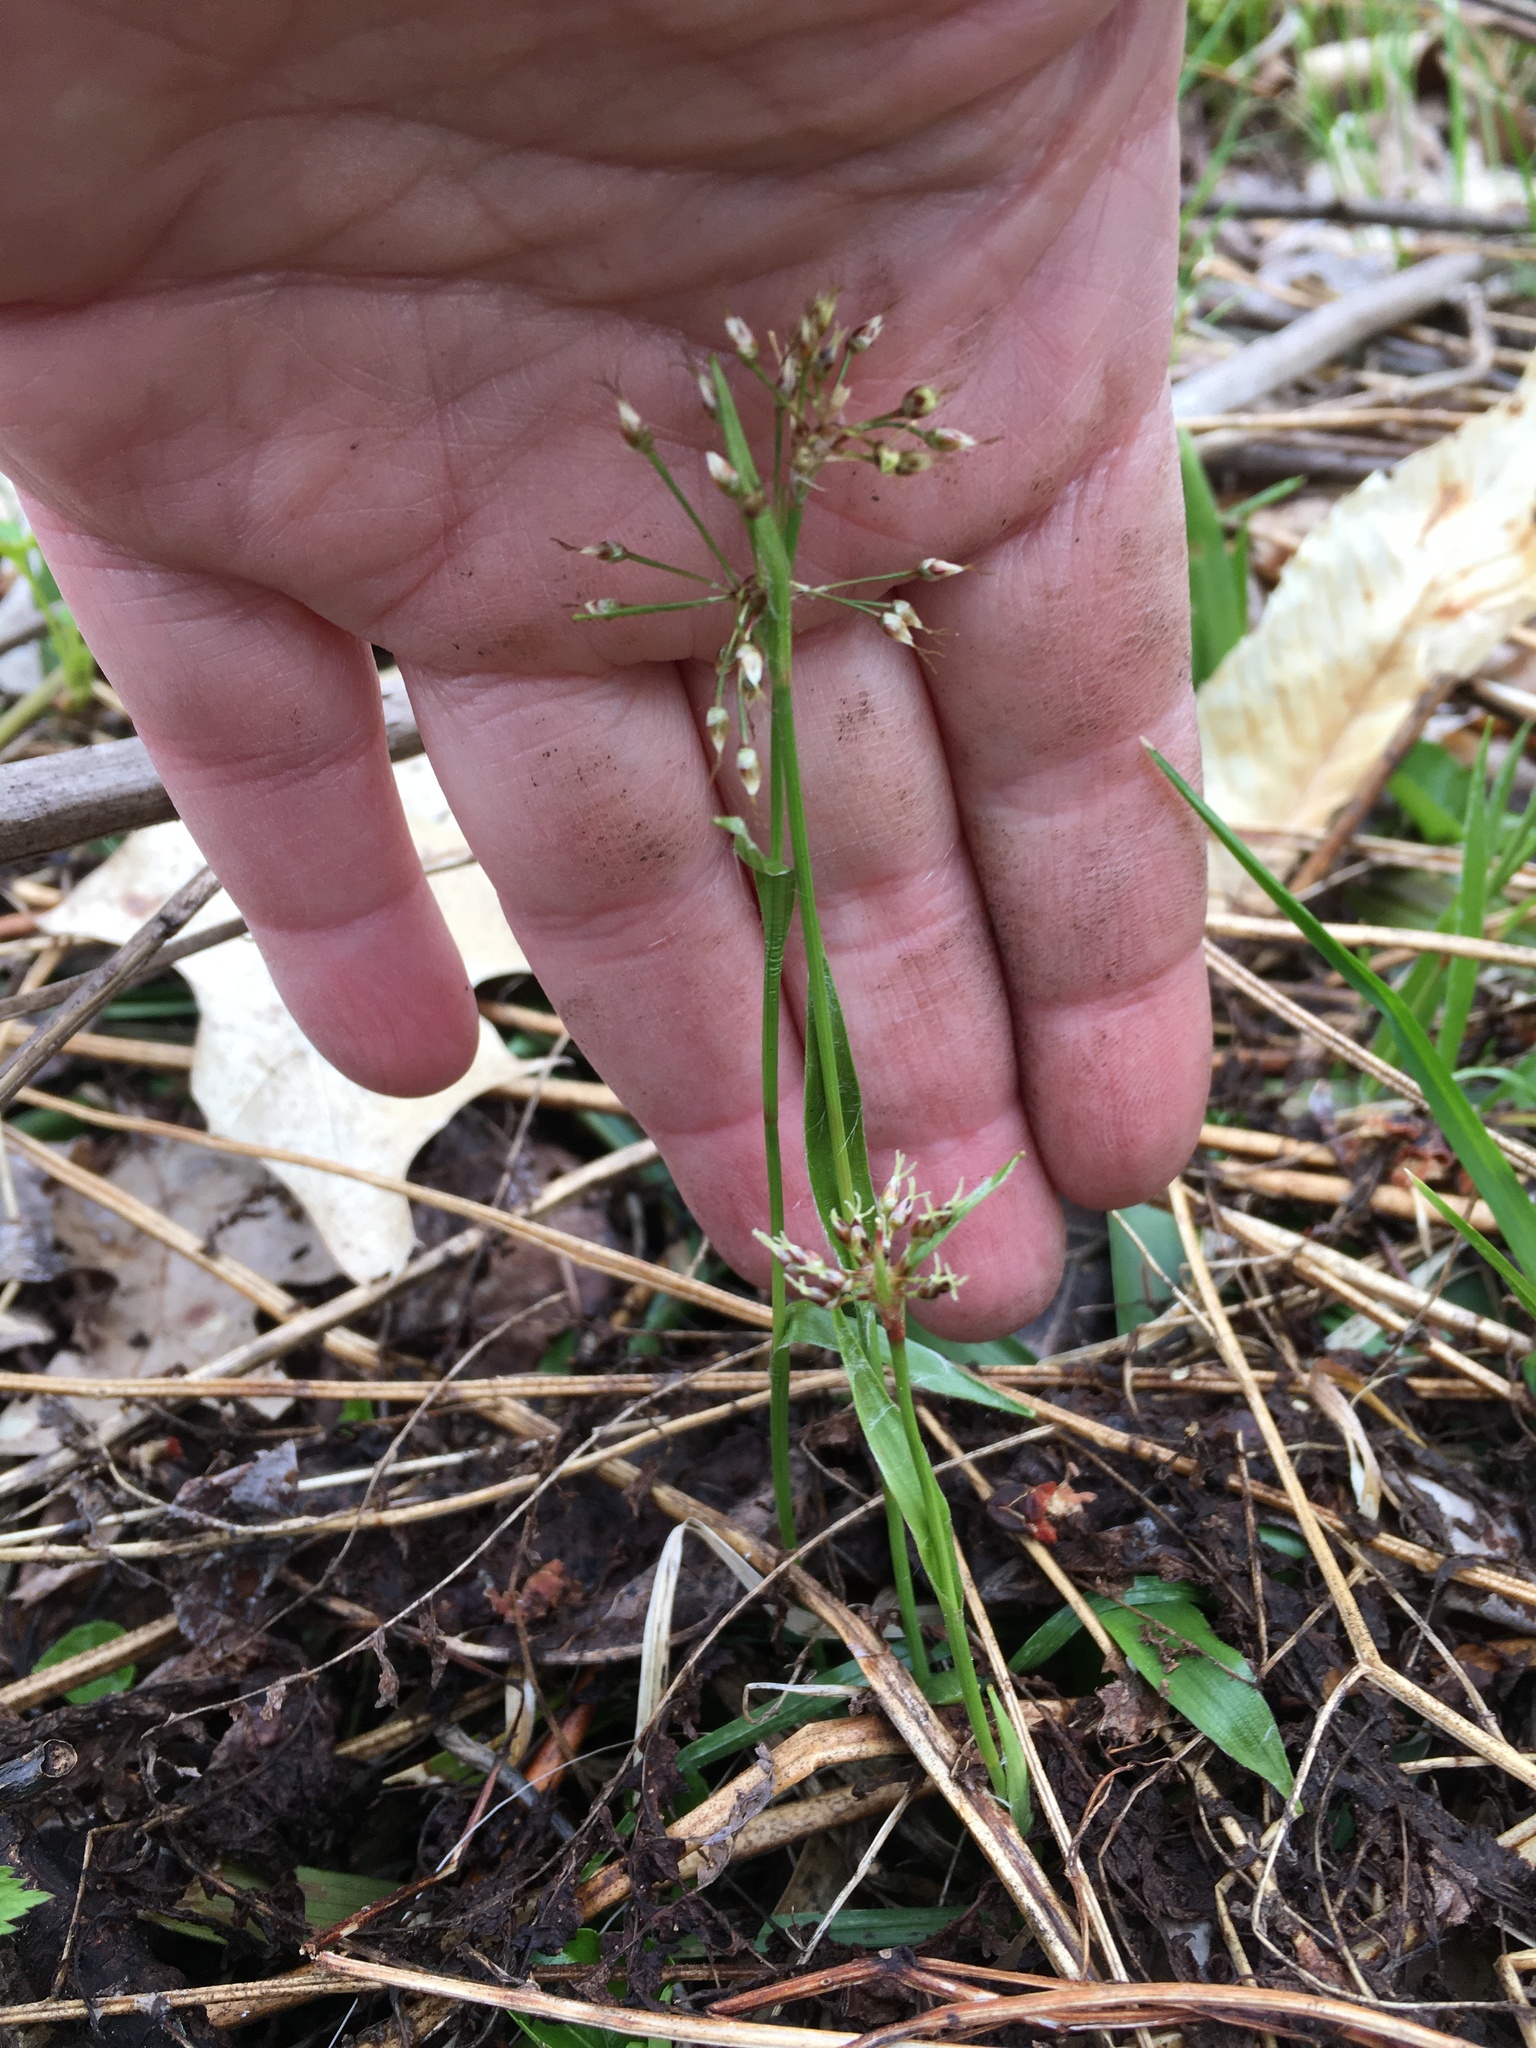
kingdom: Plantae
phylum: Tracheophyta
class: Liliopsida
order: Poales
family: Juncaceae
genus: Luzula
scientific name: Luzula acuminata
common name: Hairy woodrush
